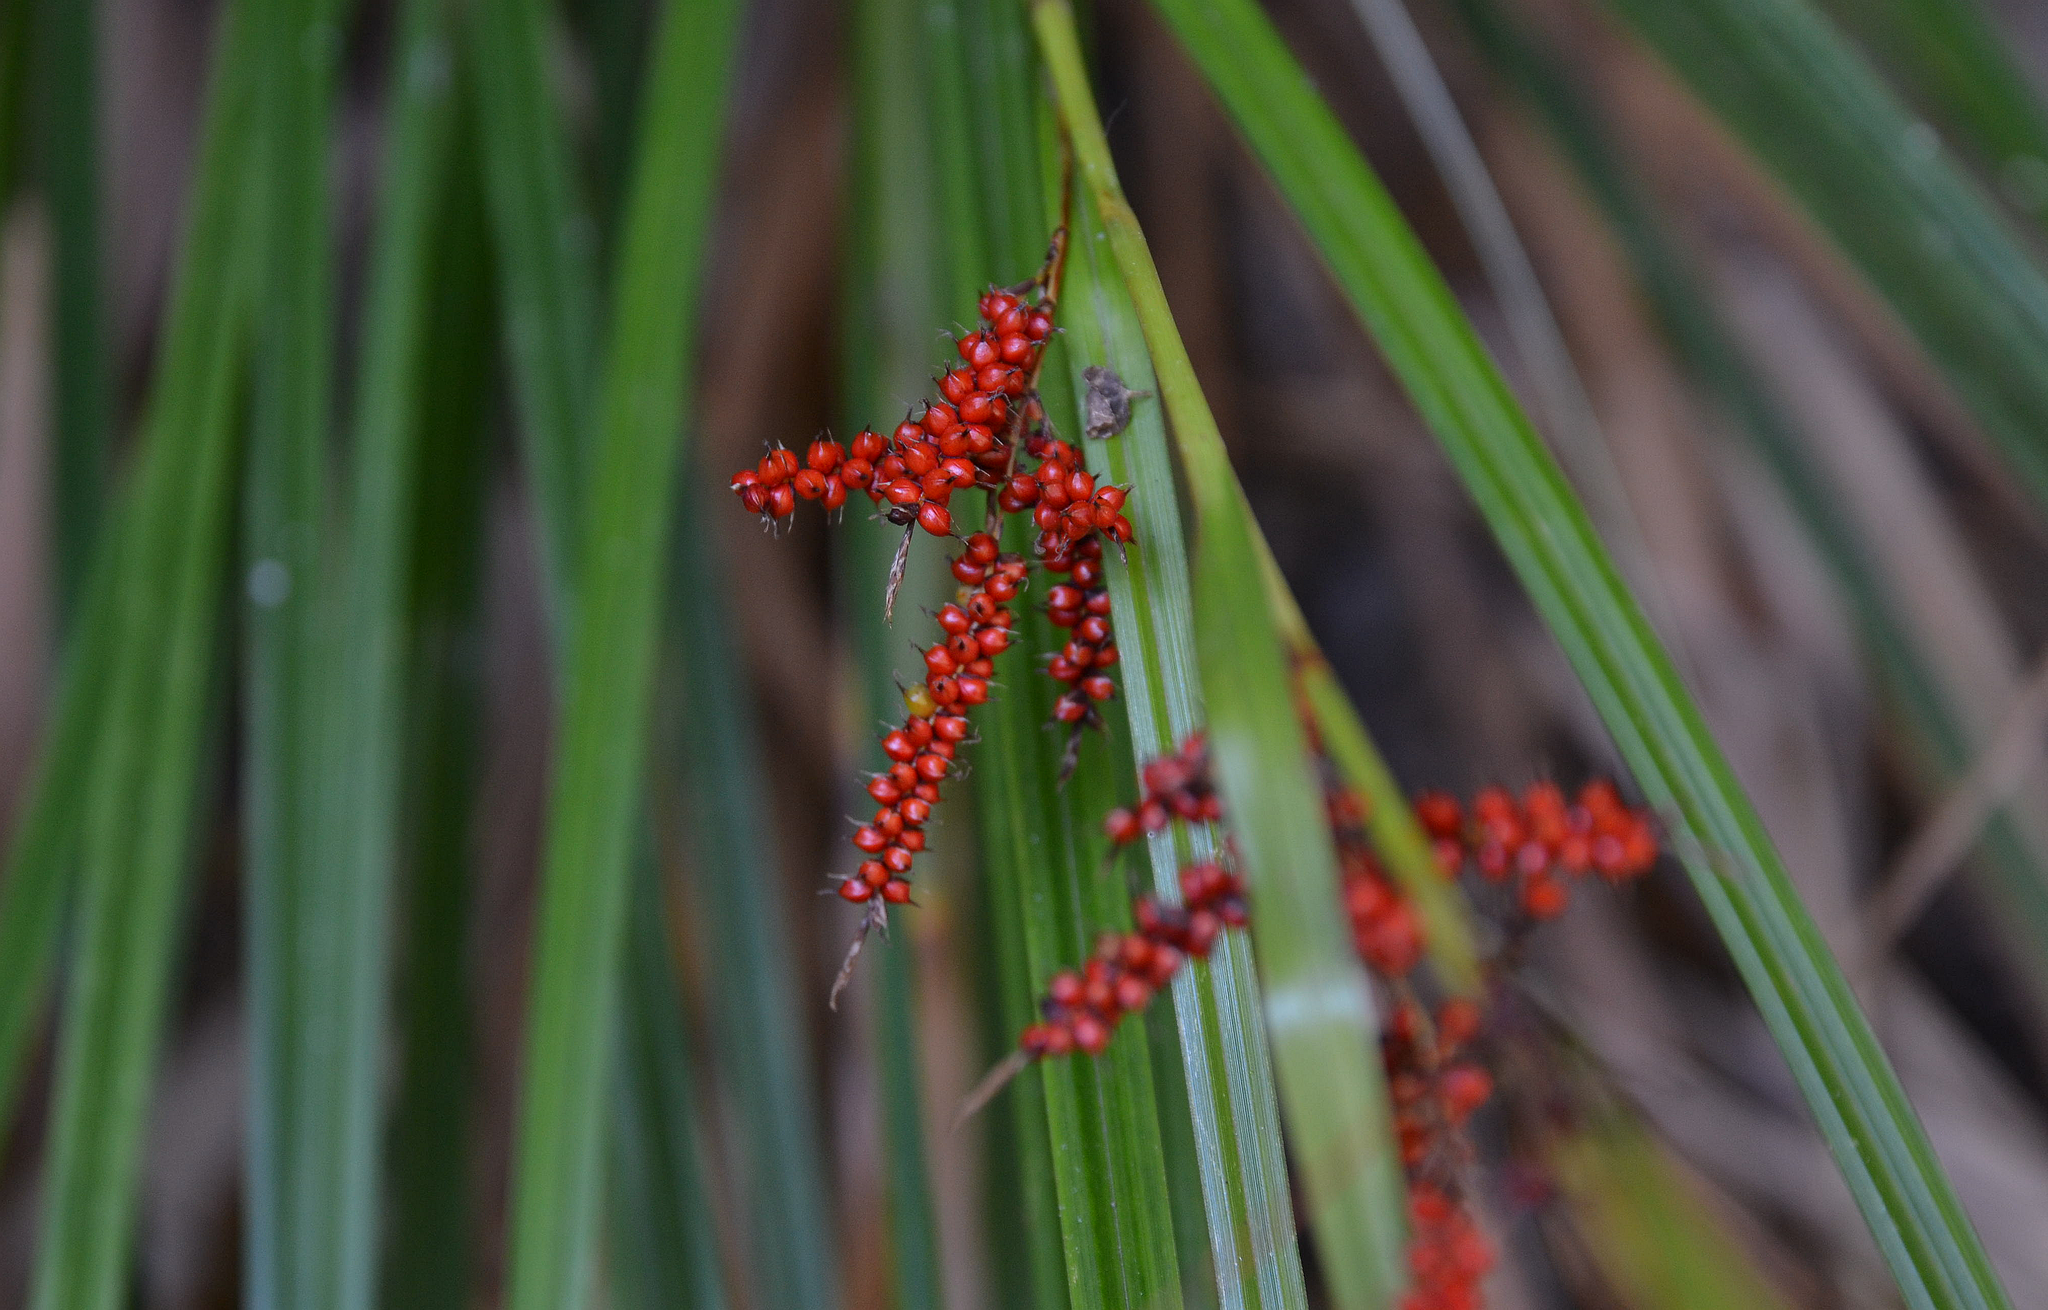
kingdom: Plantae
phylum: Tracheophyta
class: Liliopsida
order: Poales
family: Cyperaceae
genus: Carex
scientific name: Carex baccans
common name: Crimson seeded sedge
